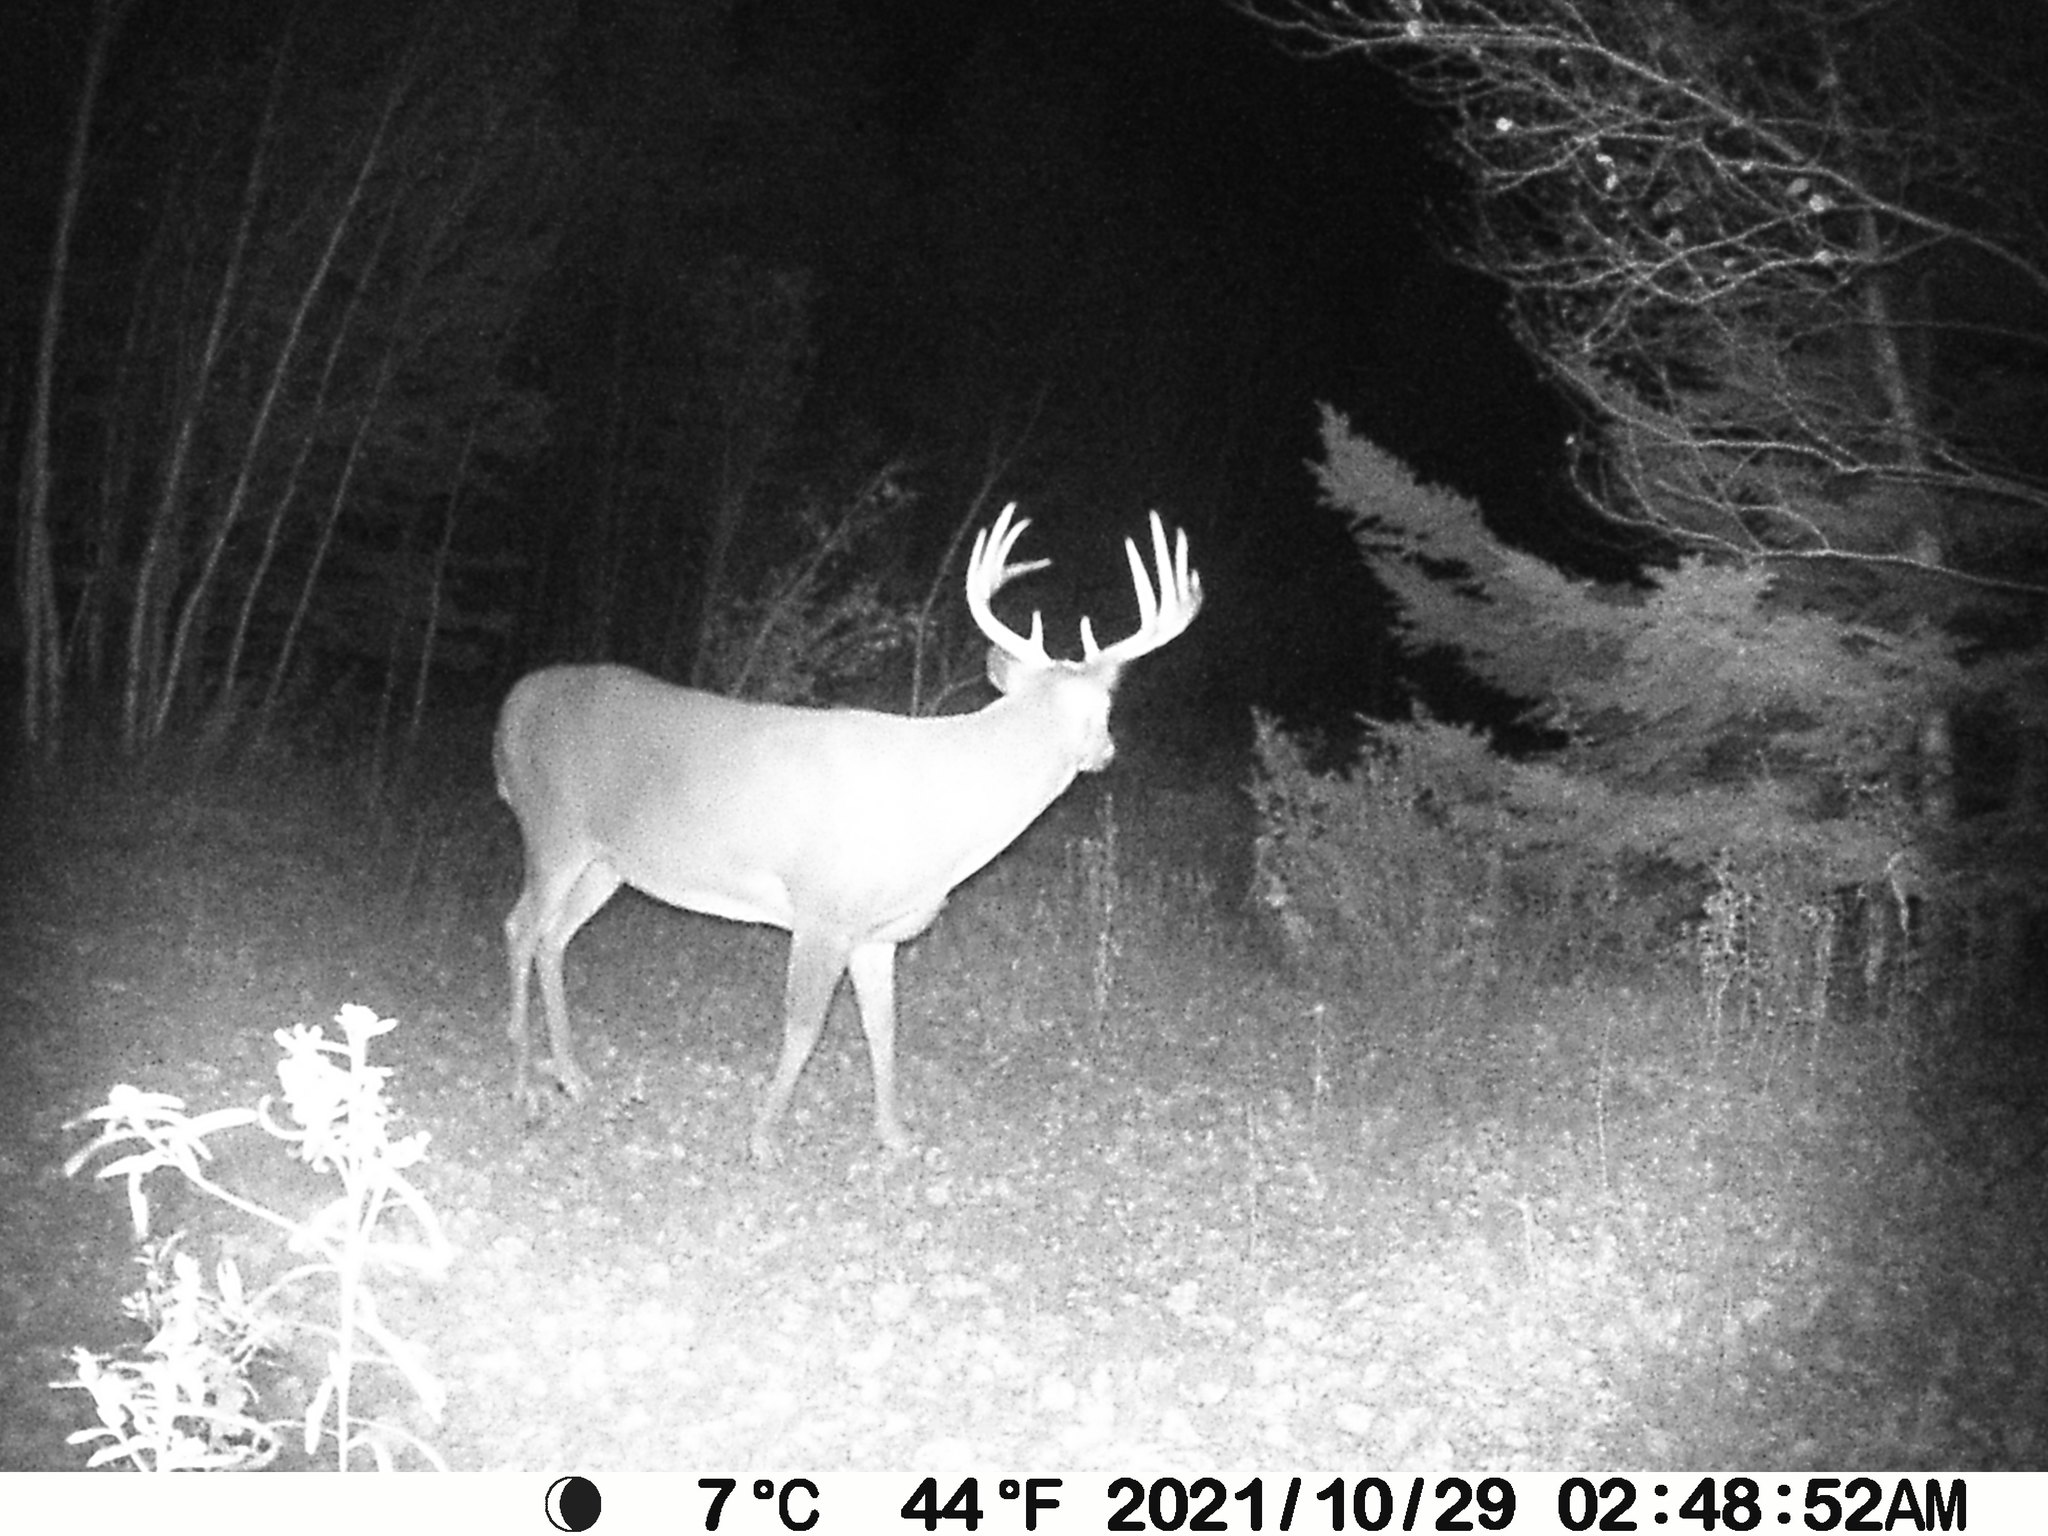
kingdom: Animalia
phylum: Chordata
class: Mammalia
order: Artiodactyla
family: Cervidae
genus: Odocoileus
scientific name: Odocoileus virginianus
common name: White-tailed deer
